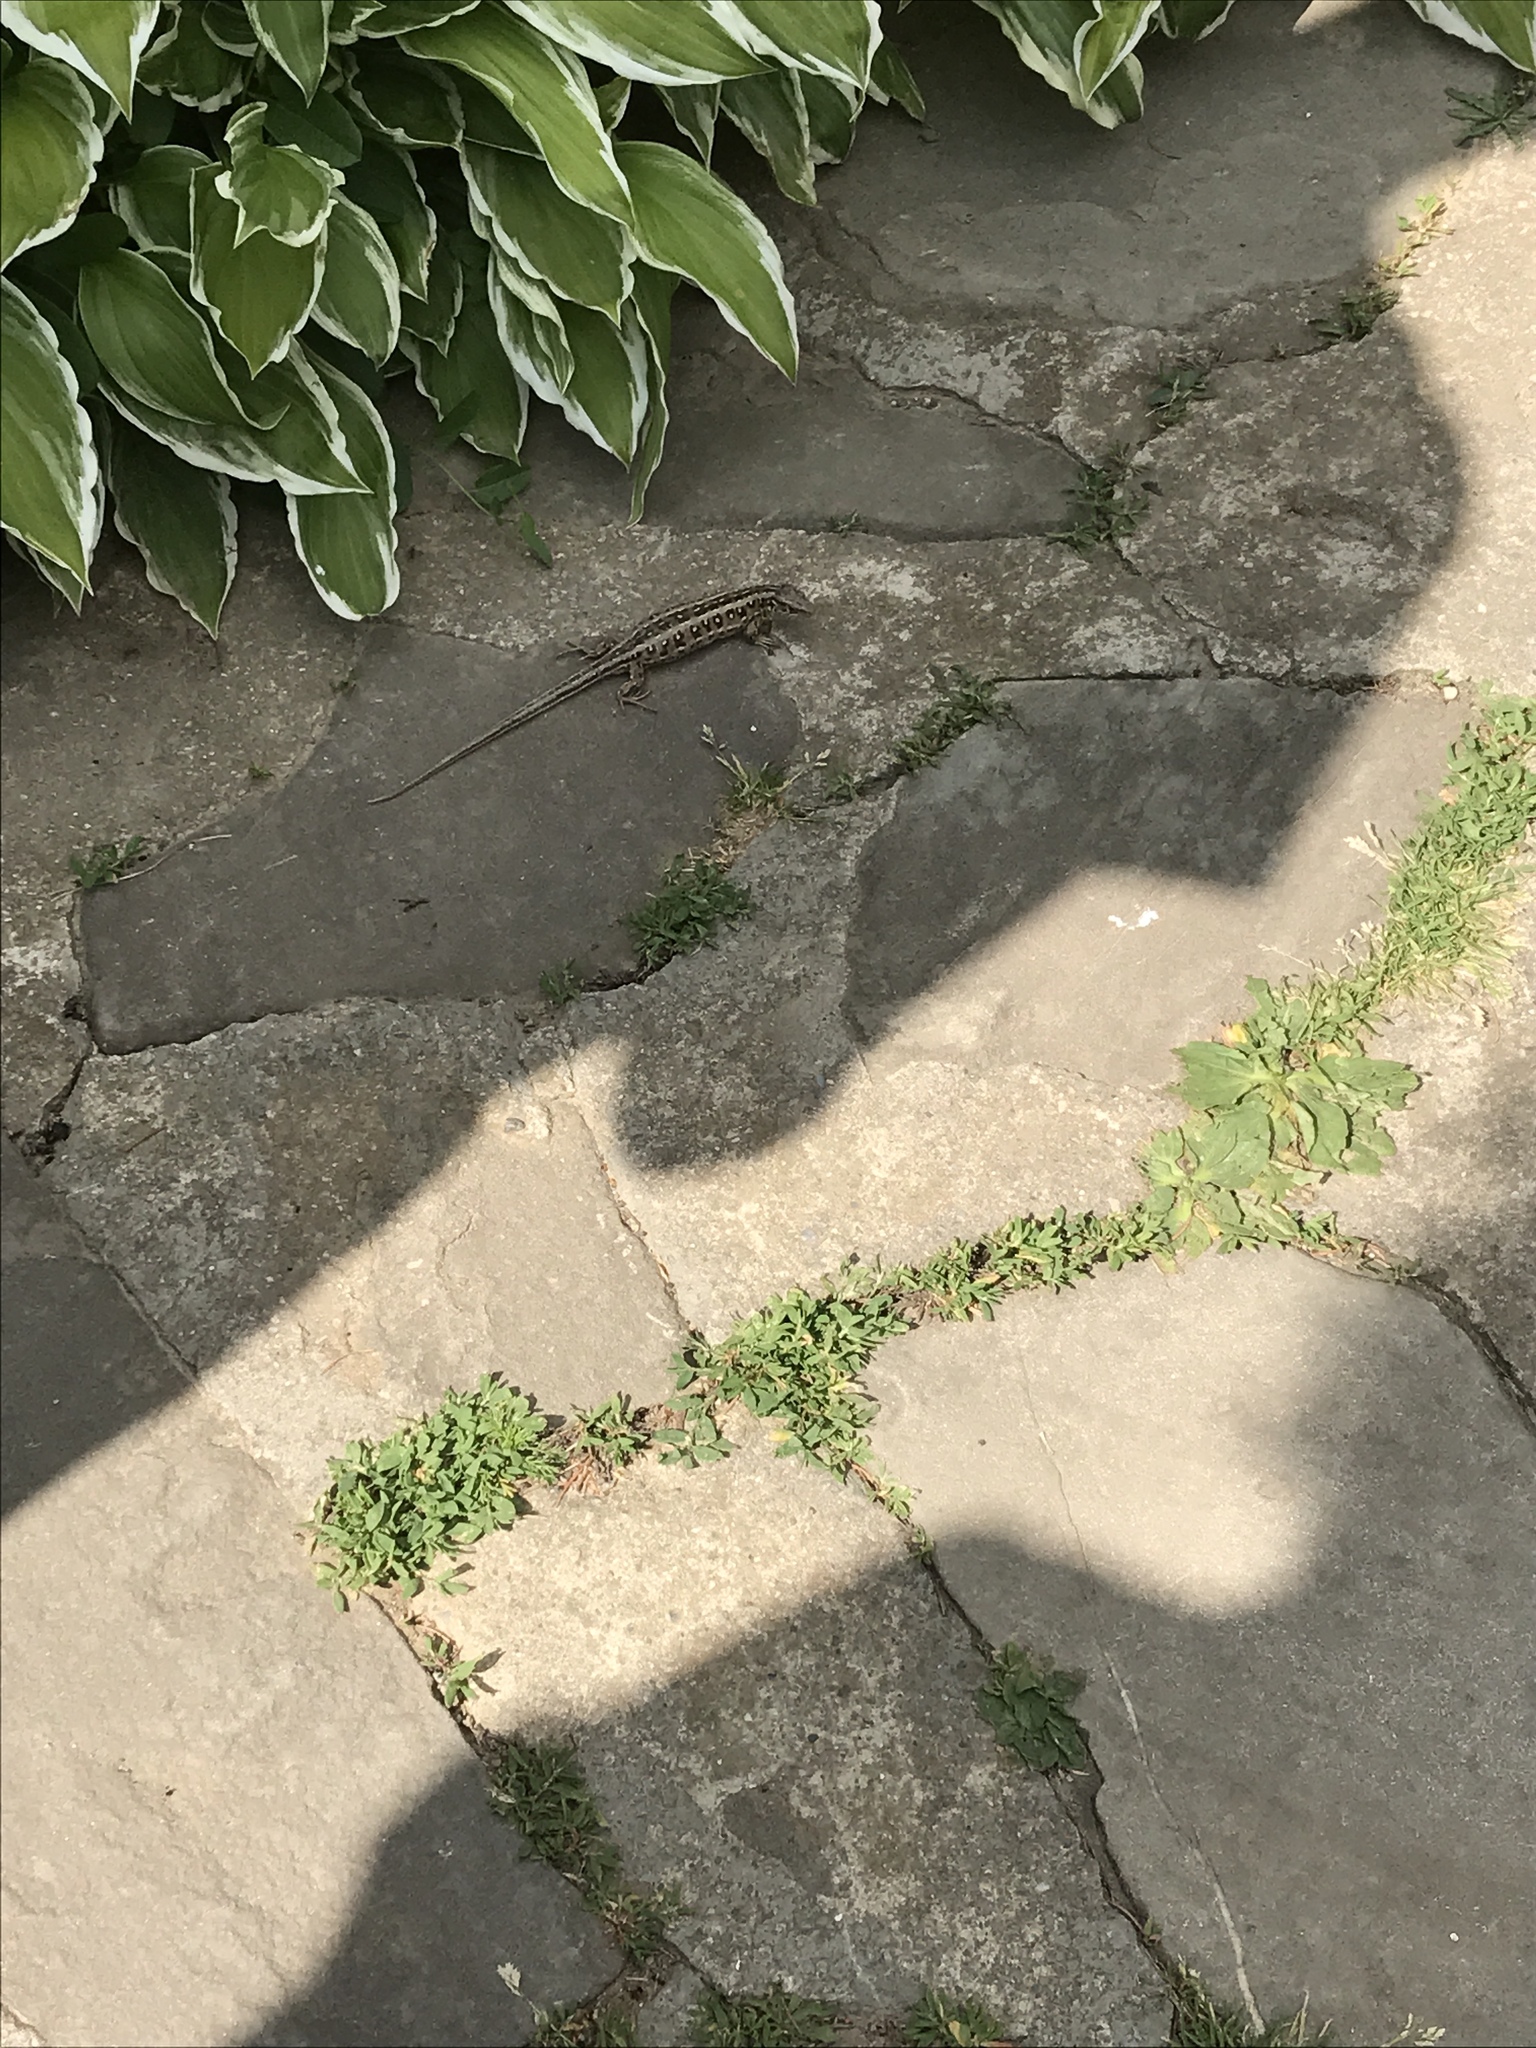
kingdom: Animalia
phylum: Chordata
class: Squamata
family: Lacertidae
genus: Lacerta
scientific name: Lacerta agilis
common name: Sand lizard
